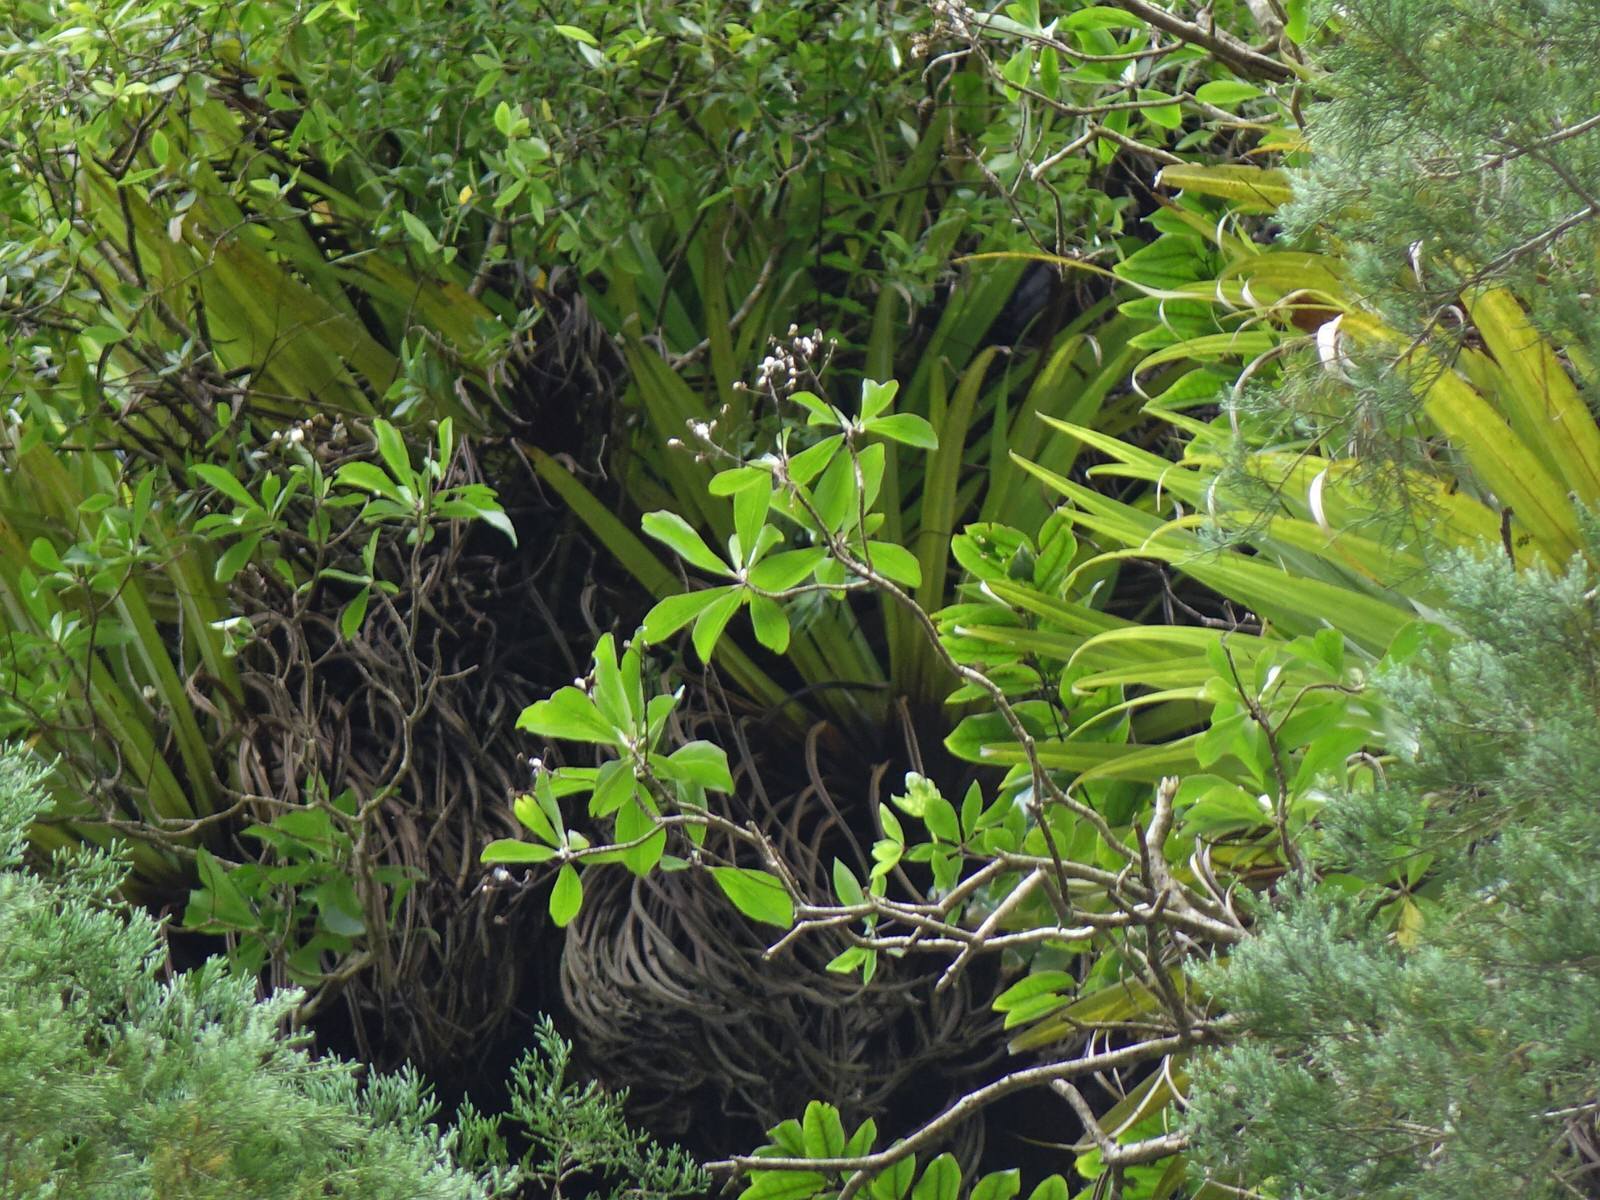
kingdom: Plantae
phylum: Tracheophyta
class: Magnoliopsida
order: Asterales
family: Asteraceae
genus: Brachyglottis
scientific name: Brachyglottis kirkii
